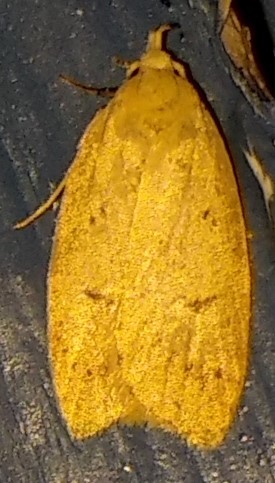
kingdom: Animalia
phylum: Arthropoda
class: Insecta
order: Lepidoptera
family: Peleopodidae
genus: Machimia
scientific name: Machimia tentoriferella
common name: Gold-striped leaftier moth
